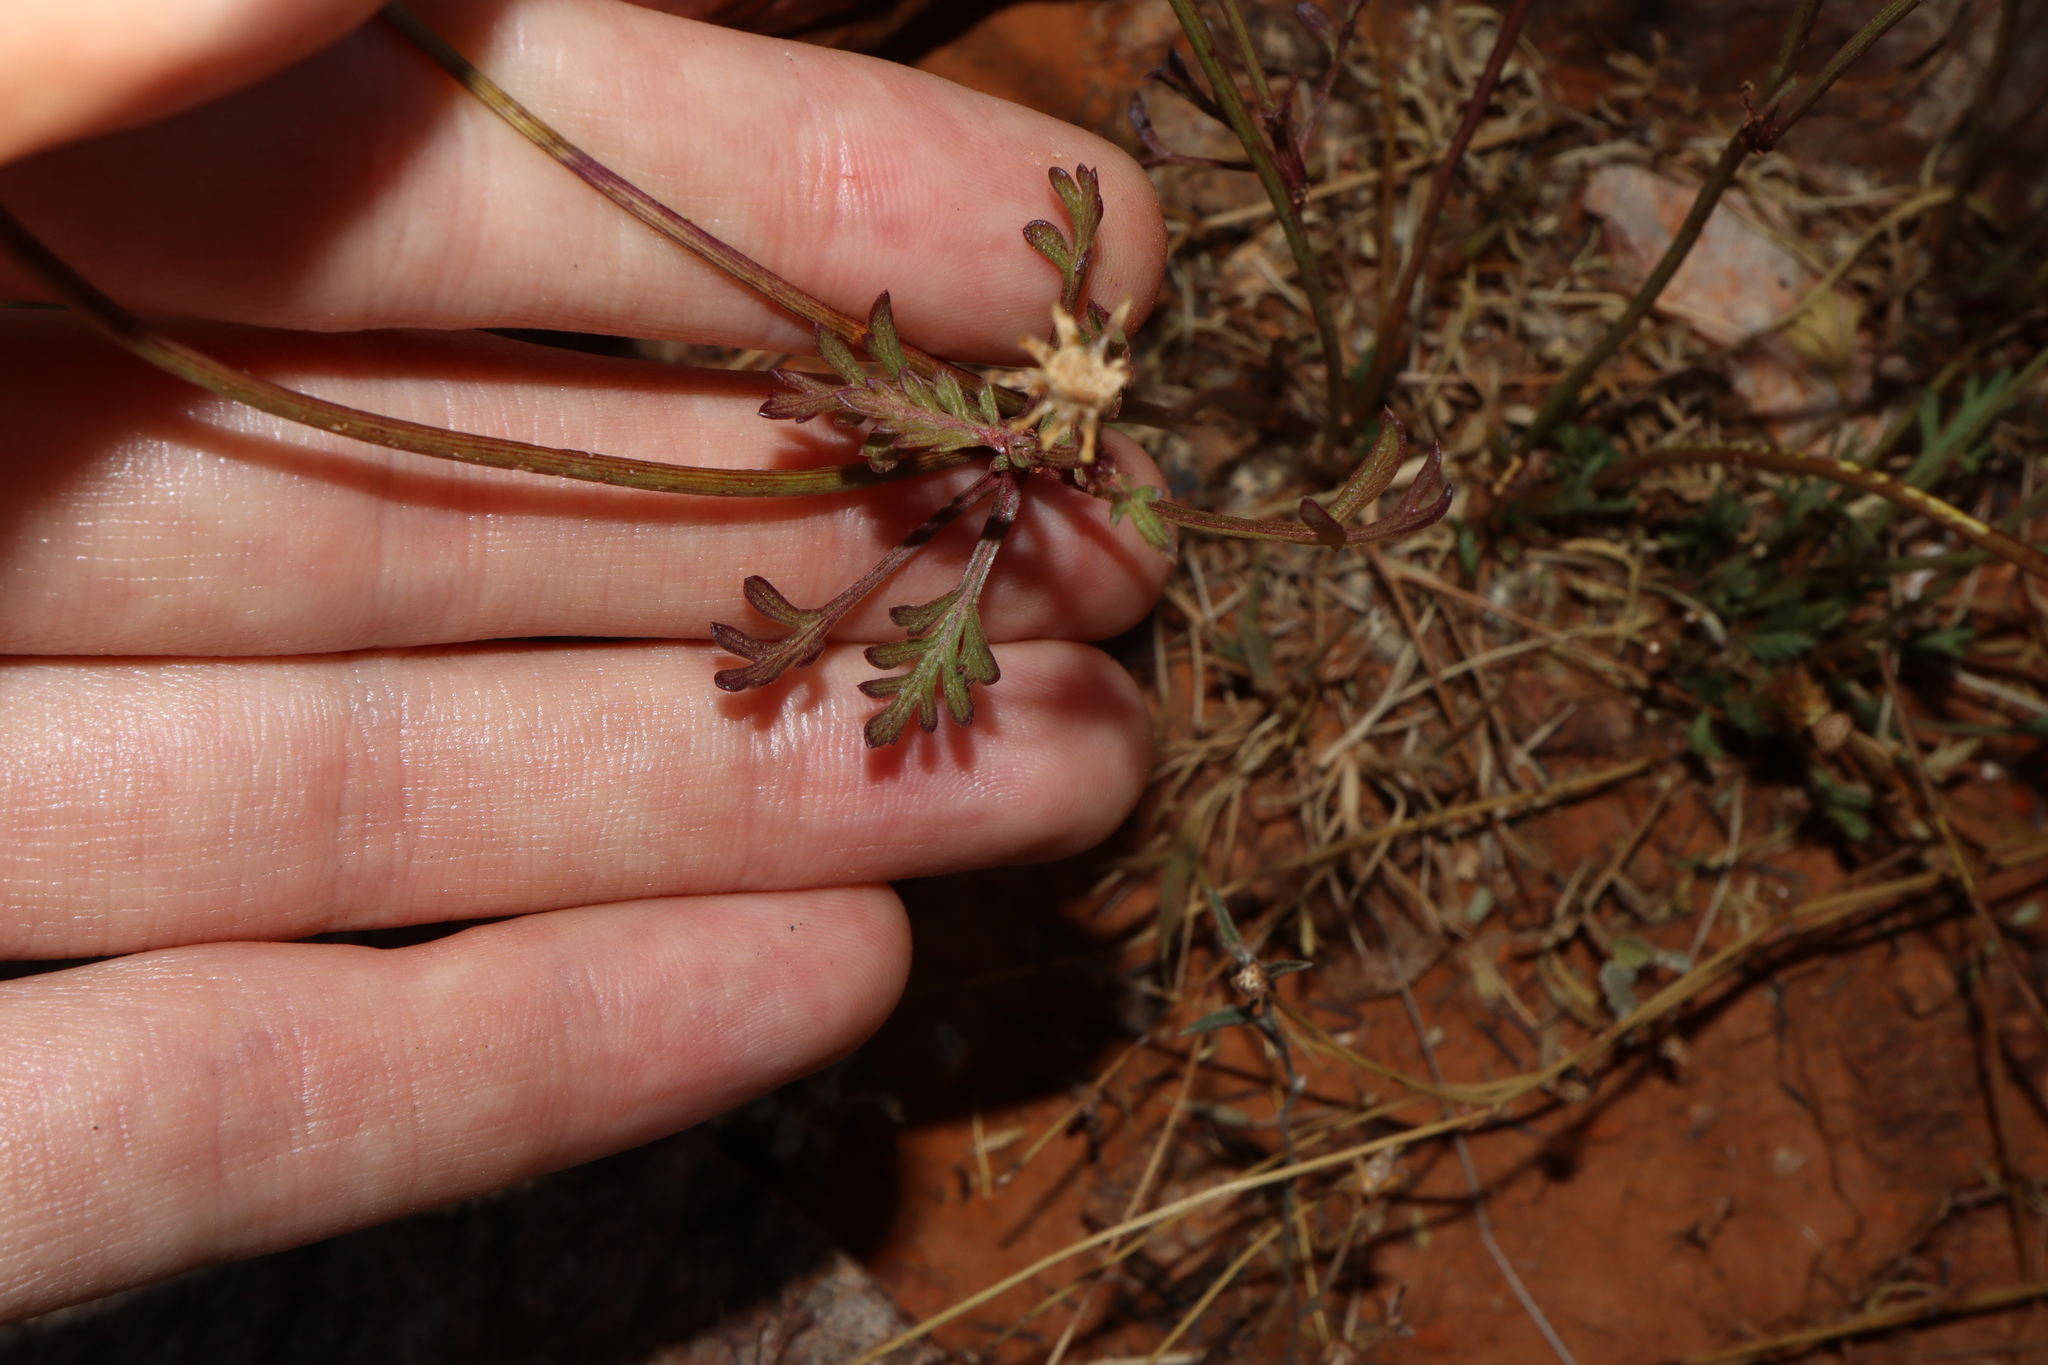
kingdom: Plantae
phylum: Tracheophyta
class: Magnoliopsida
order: Asterales
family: Asteraceae
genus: Glossocardia
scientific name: Glossocardia bidens
